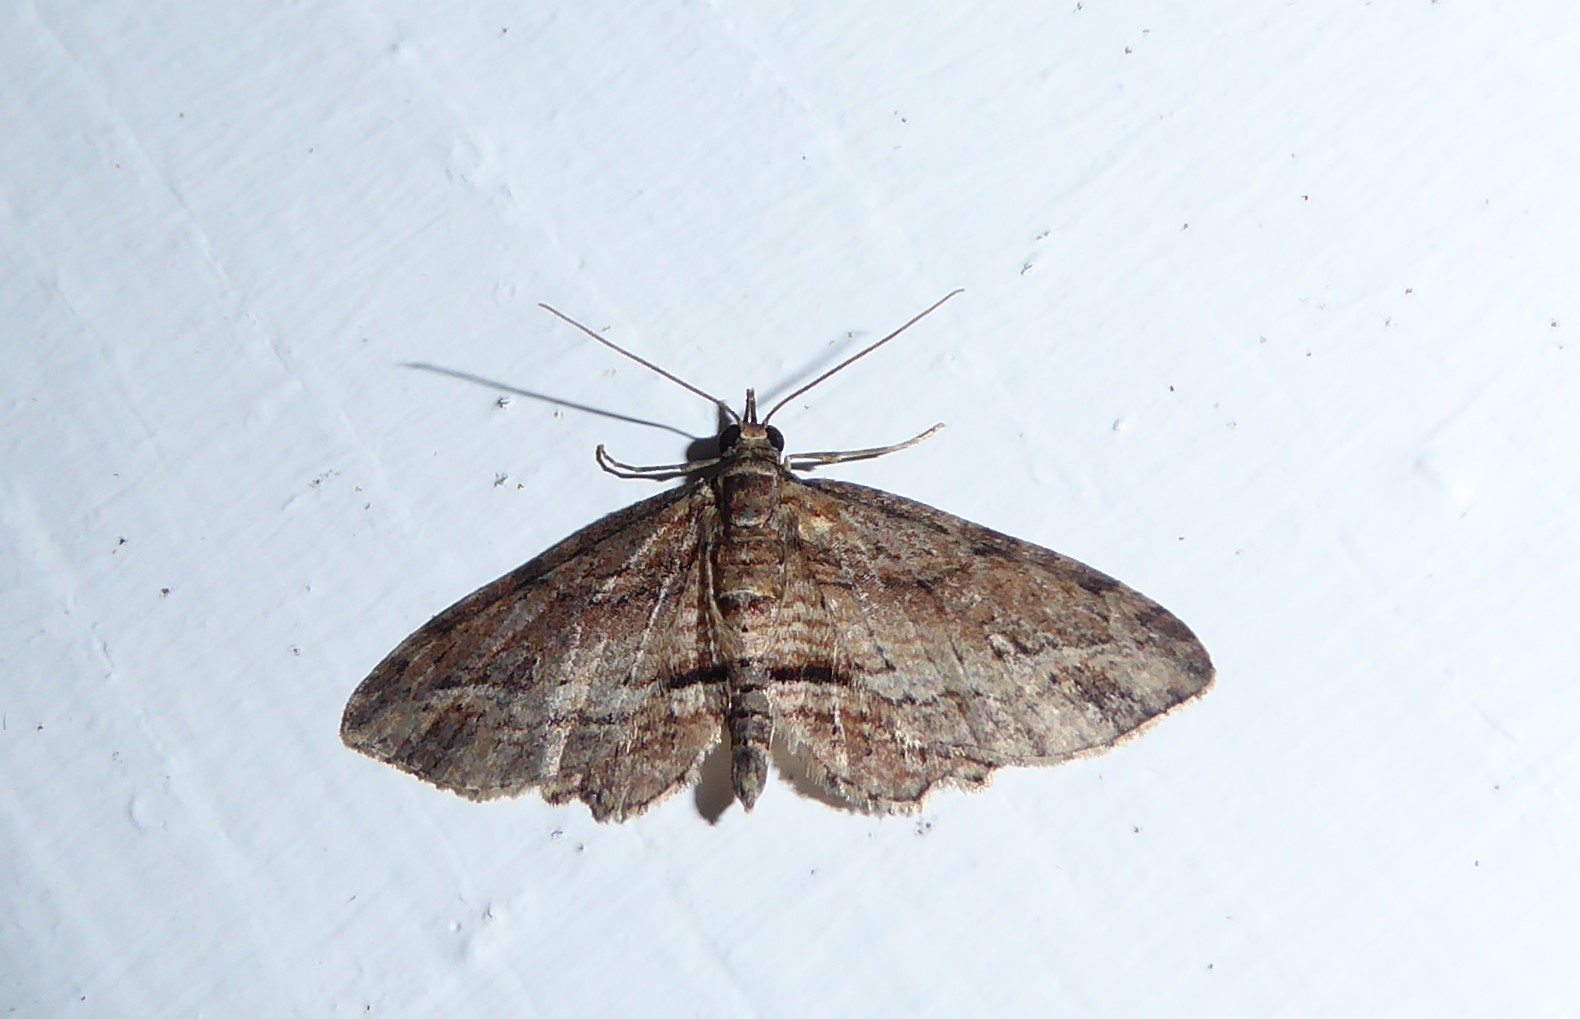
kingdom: Animalia
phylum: Arthropoda
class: Insecta
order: Lepidoptera
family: Geometridae
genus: Chloroclystis
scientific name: Chloroclystis filata
